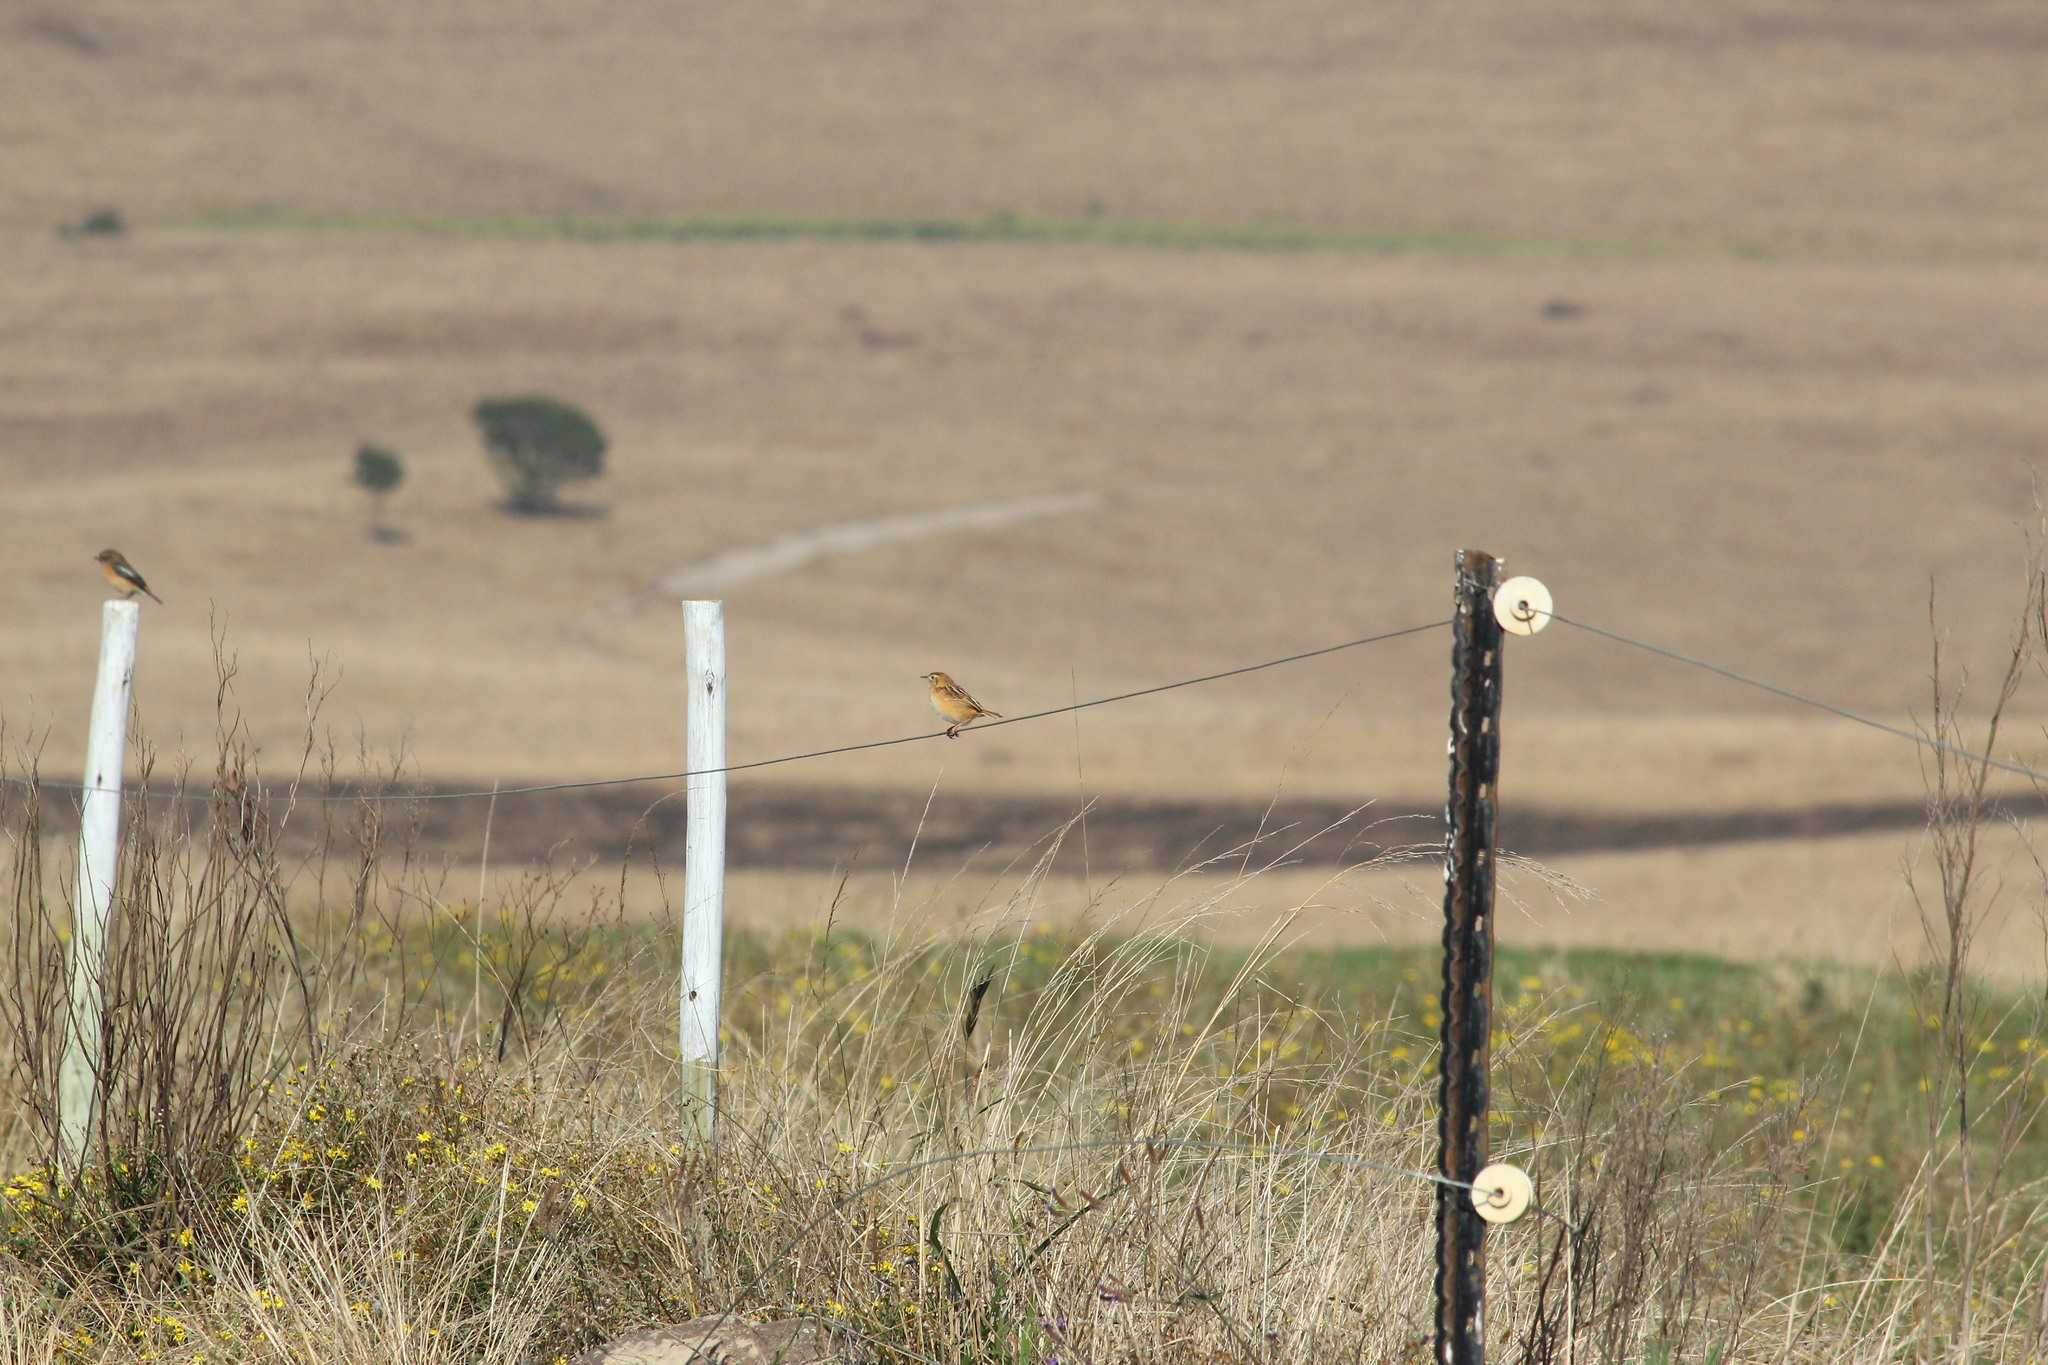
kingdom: Animalia
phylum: Chordata
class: Aves
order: Passeriformes
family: Cisticolidae
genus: Cisticola
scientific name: Cisticola juncidis
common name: Zitting cisticola
